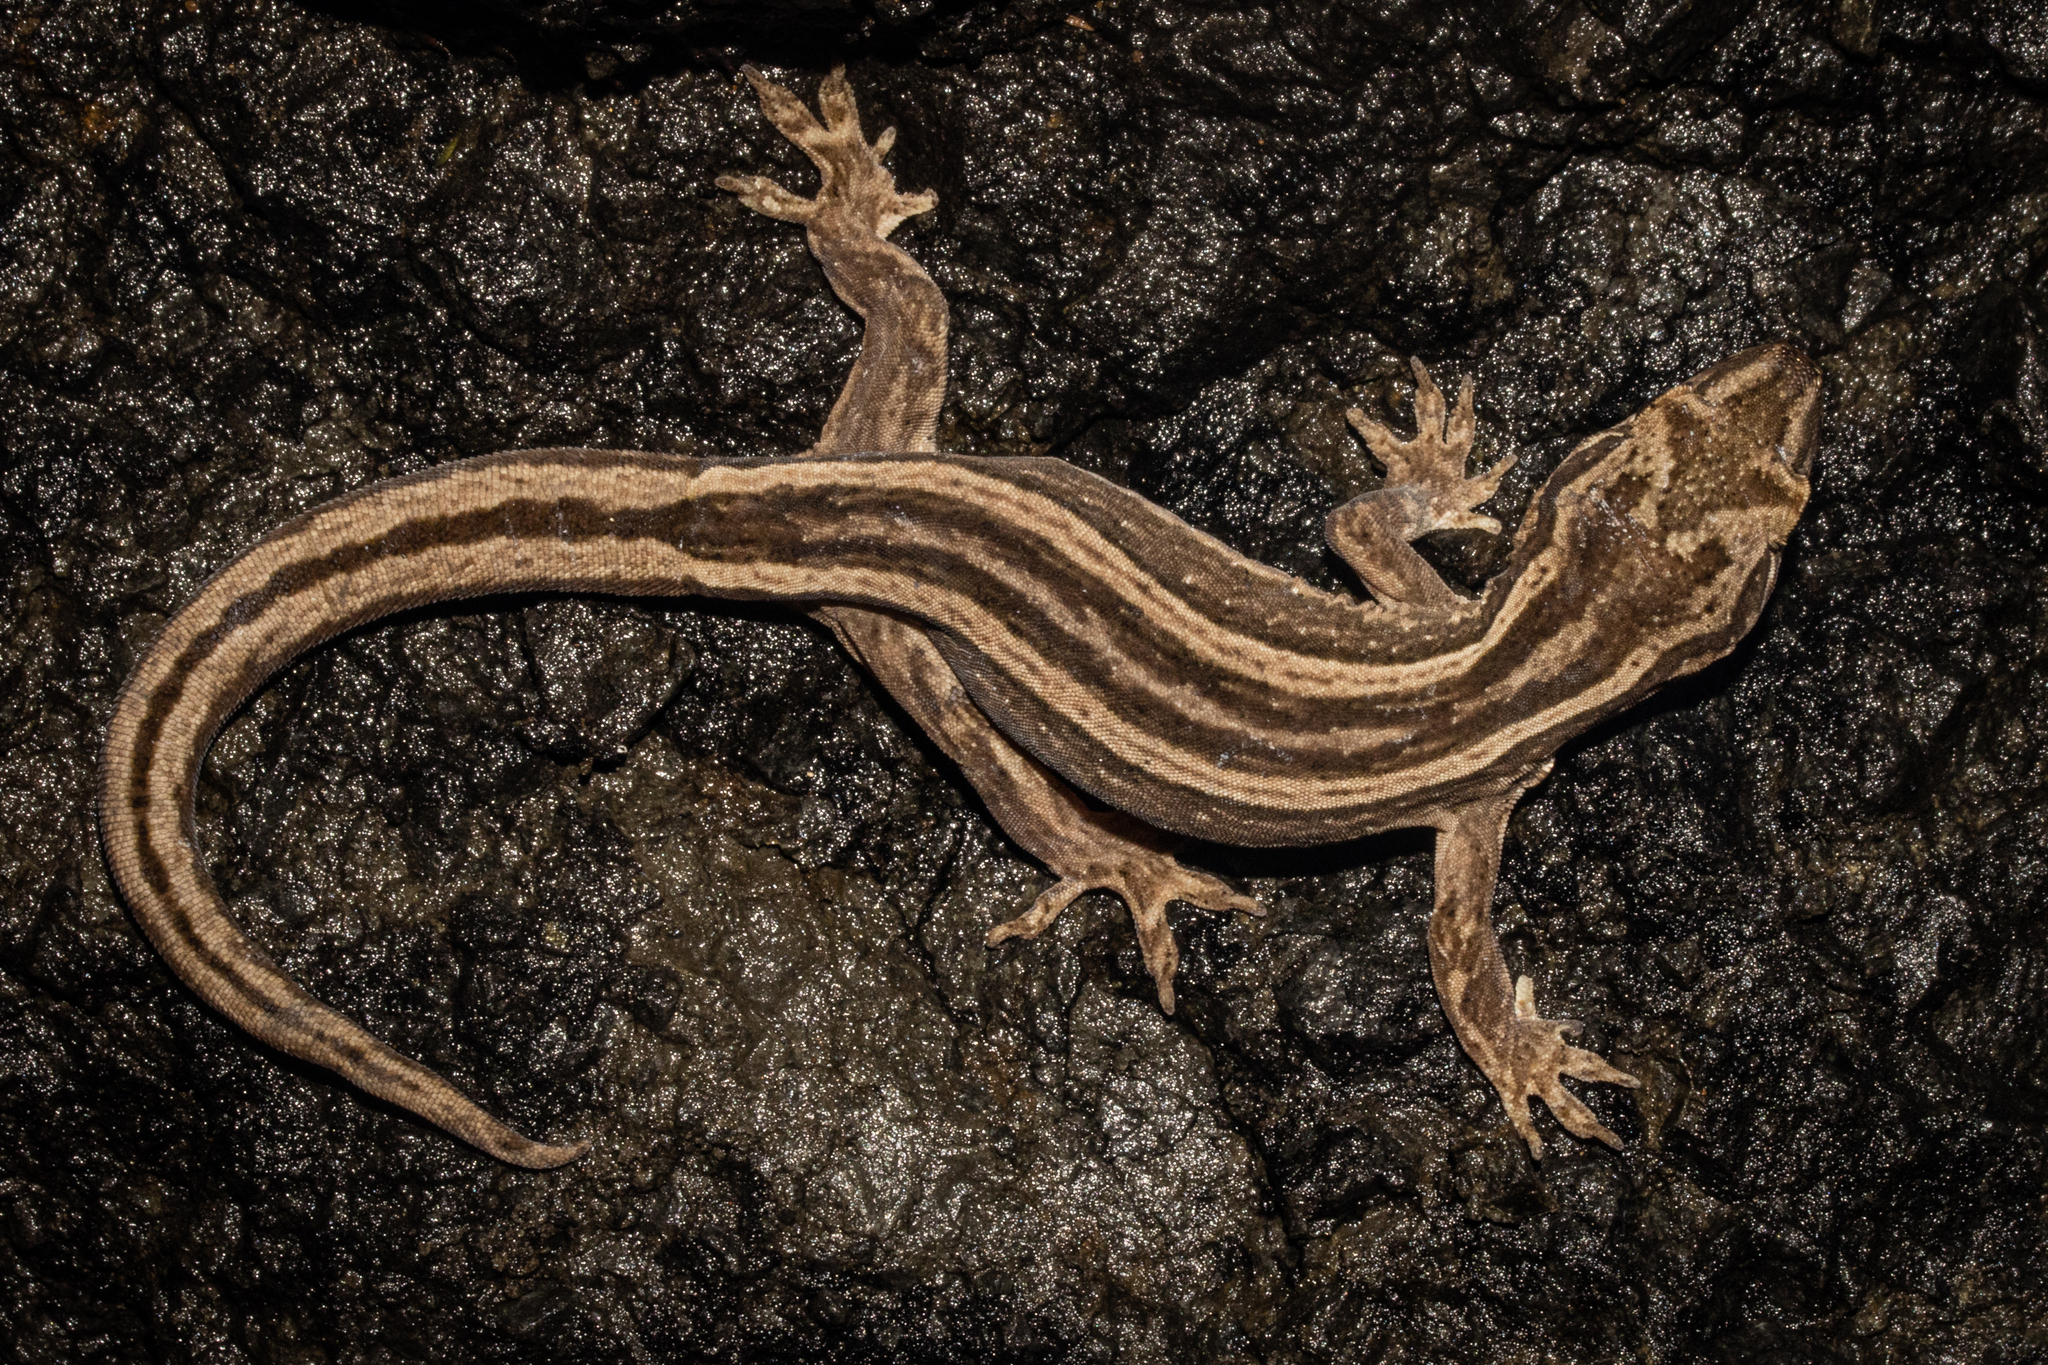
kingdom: Animalia
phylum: Chordata
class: Squamata
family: Diplodactylidae
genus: Dactylocnemis
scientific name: Dactylocnemis
